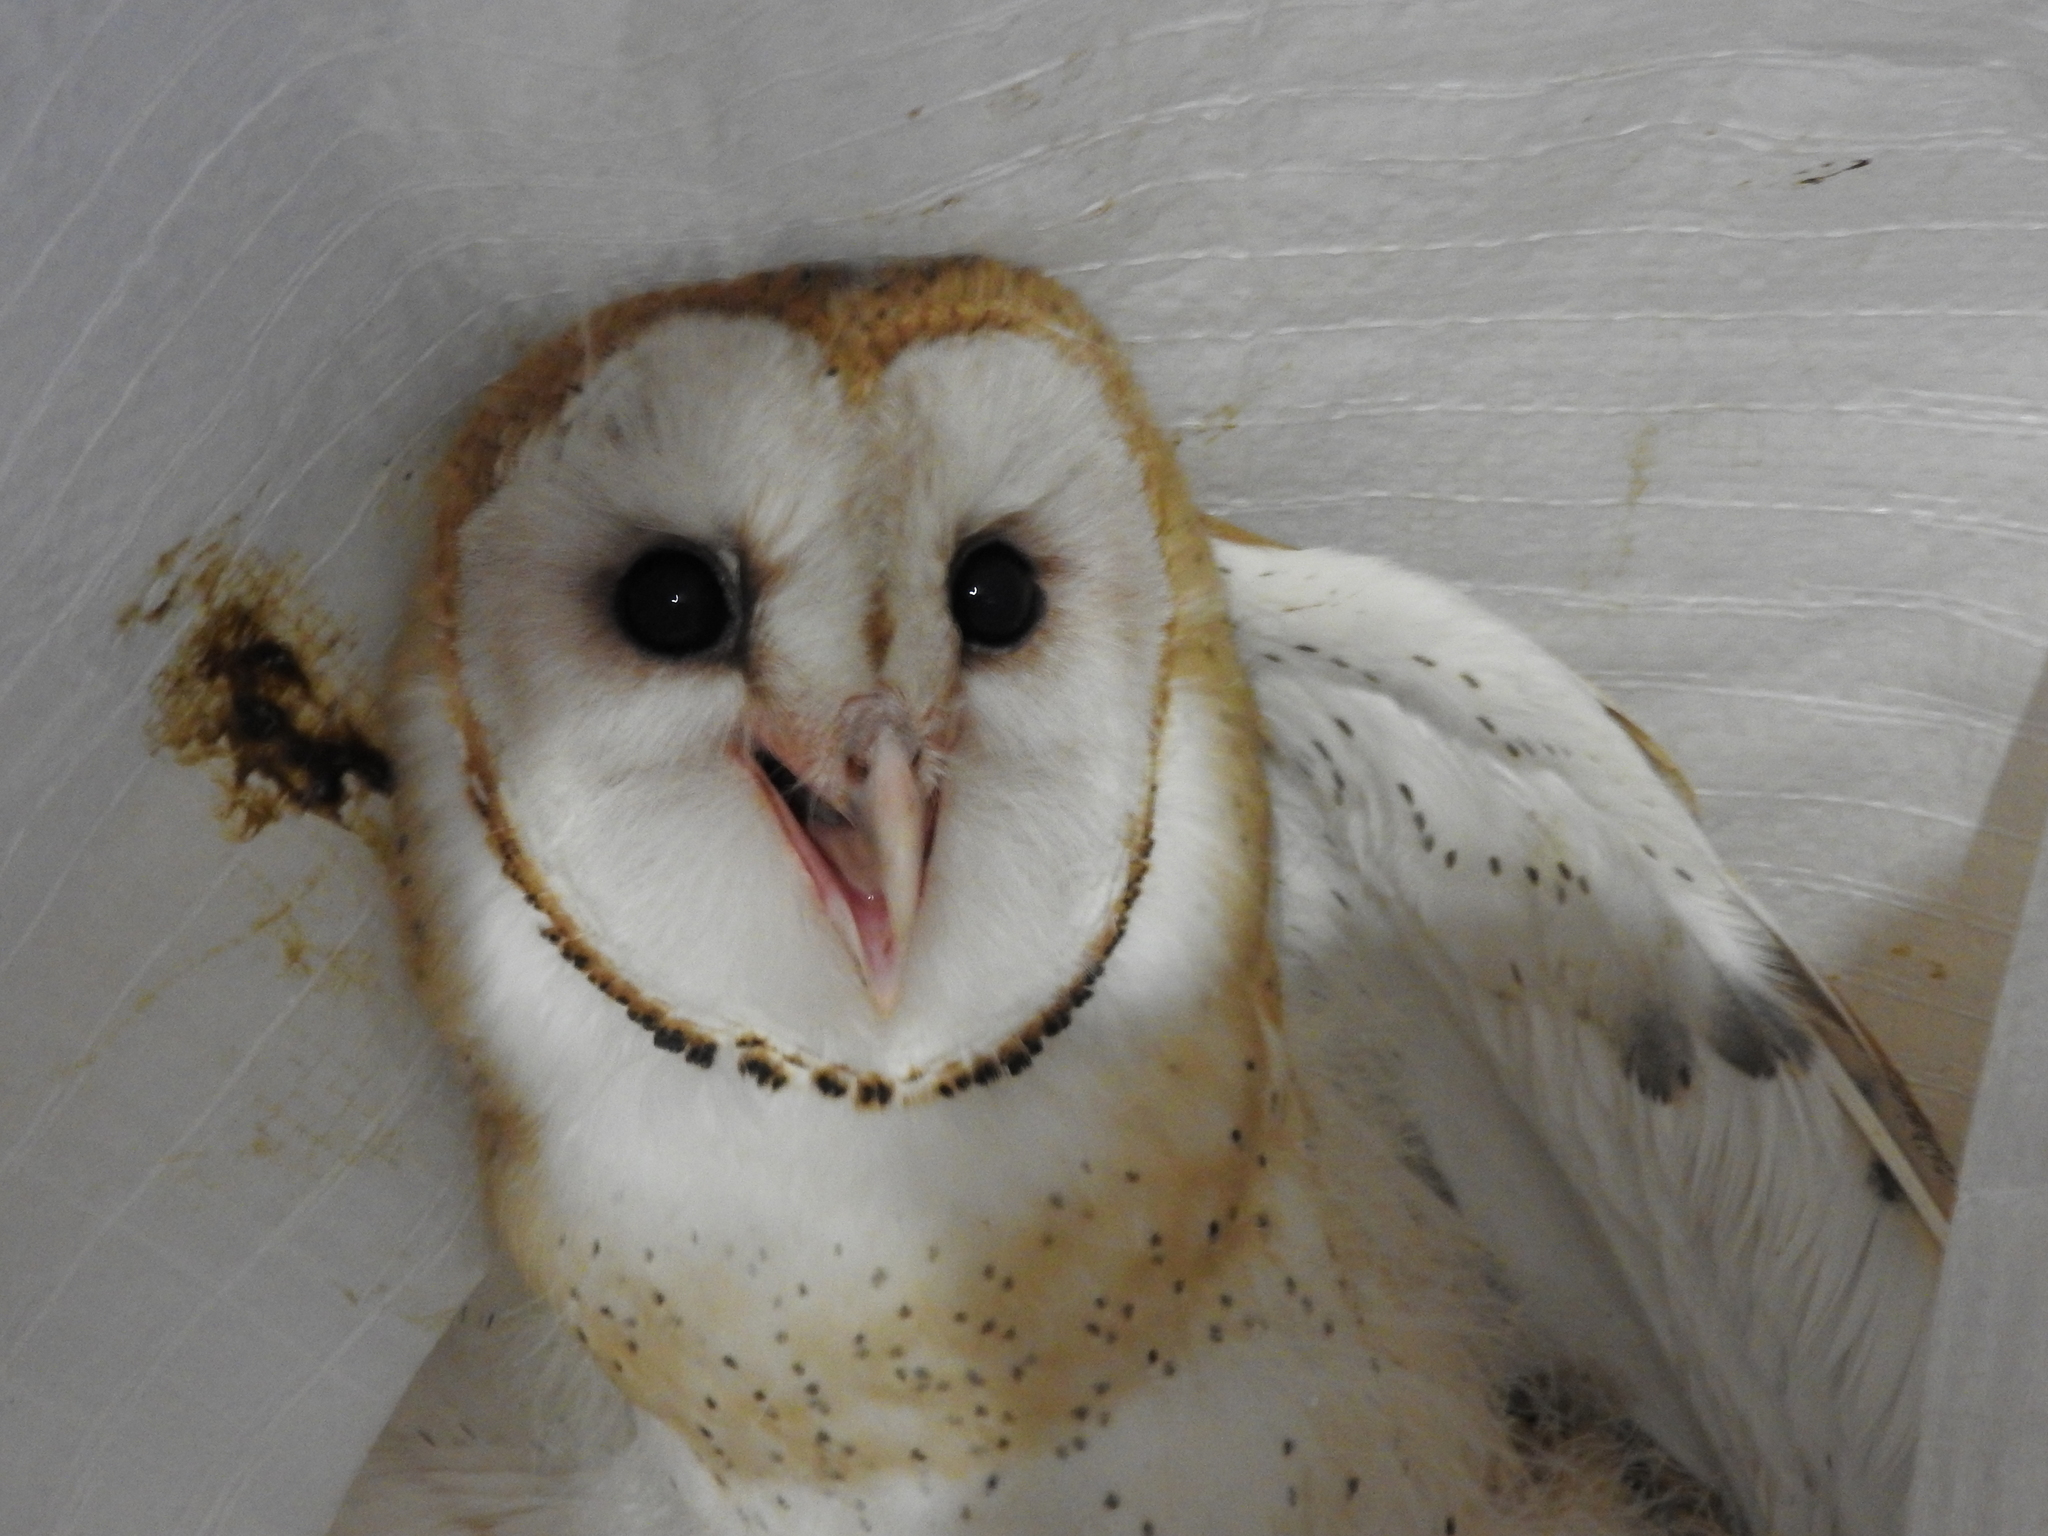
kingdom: Animalia
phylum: Chordata
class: Aves
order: Strigiformes
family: Tytonidae
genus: Tyto
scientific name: Tyto alba
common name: Barn owl
